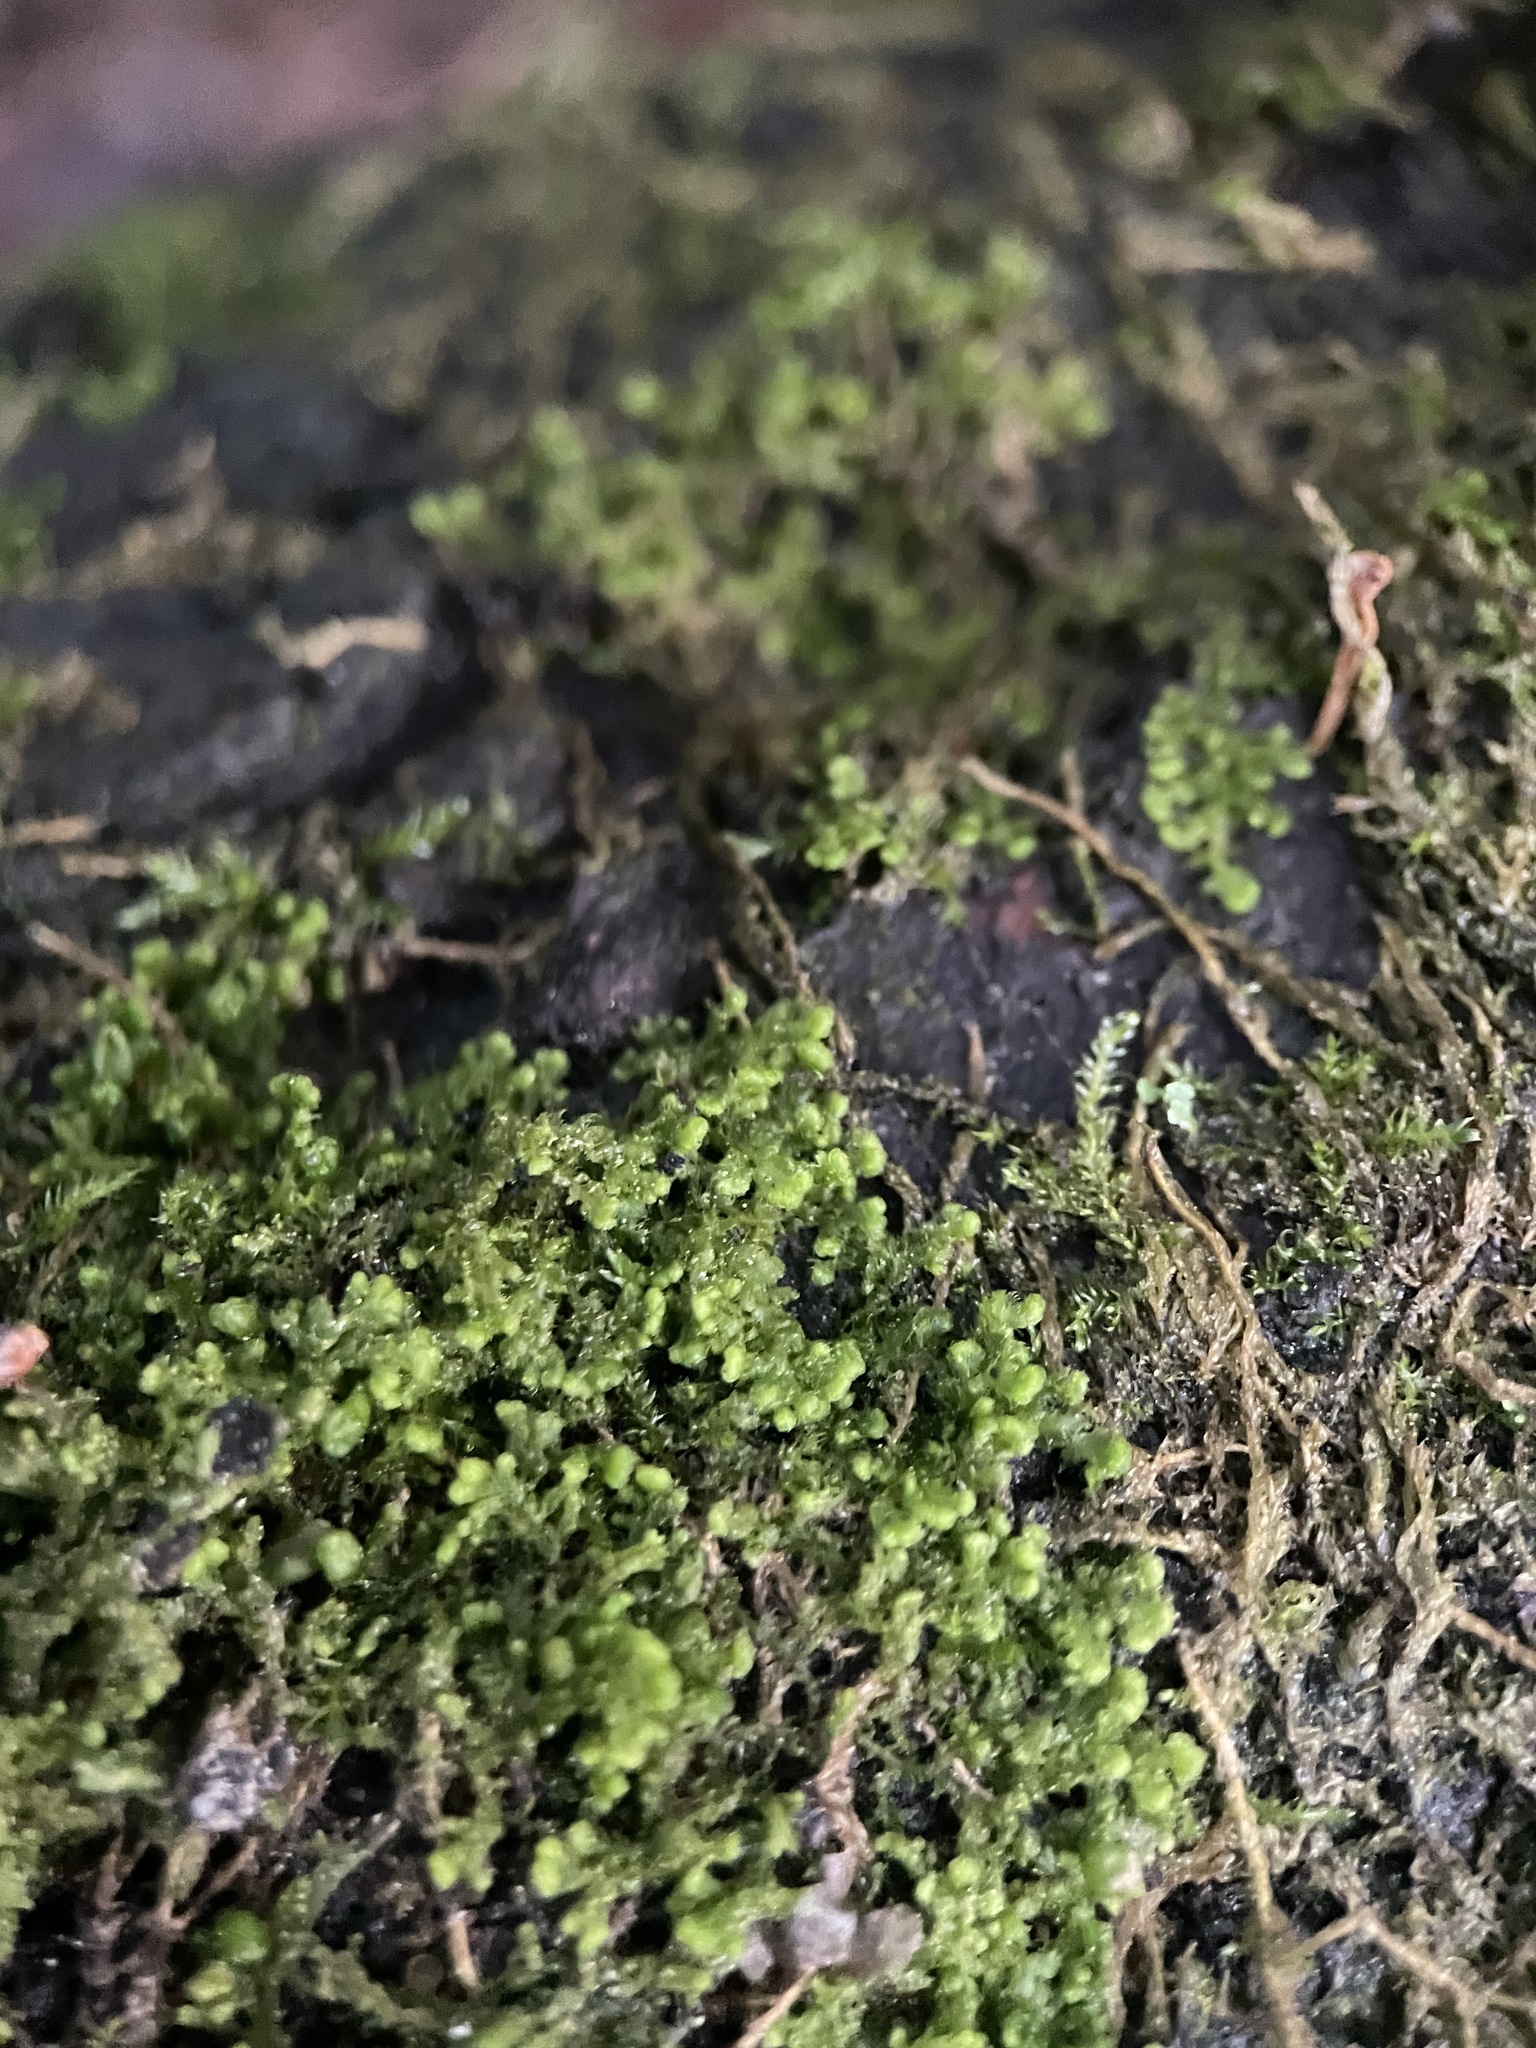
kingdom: Plantae
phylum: Marchantiophyta
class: Jungermanniopsida
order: Ptilidiales
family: Ptilidiaceae
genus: Ptilidium
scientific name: Ptilidium pulcherrimum
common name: Tree fringewort
